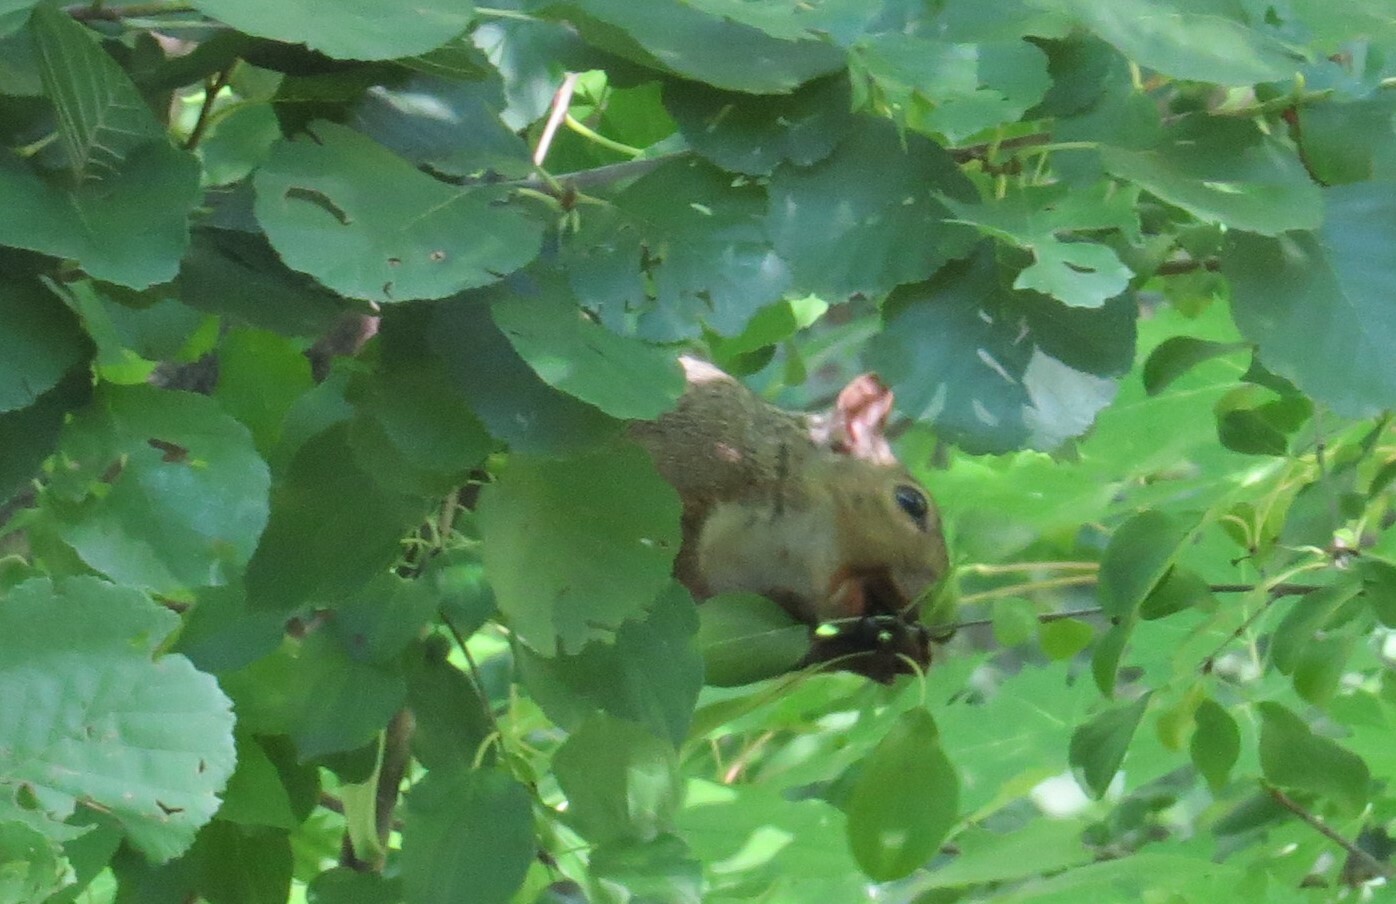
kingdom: Animalia
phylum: Chordata
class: Mammalia
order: Rodentia
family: Sciuridae
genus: Sciurus
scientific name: Sciurus carolinensis
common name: Eastern gray squirrel
